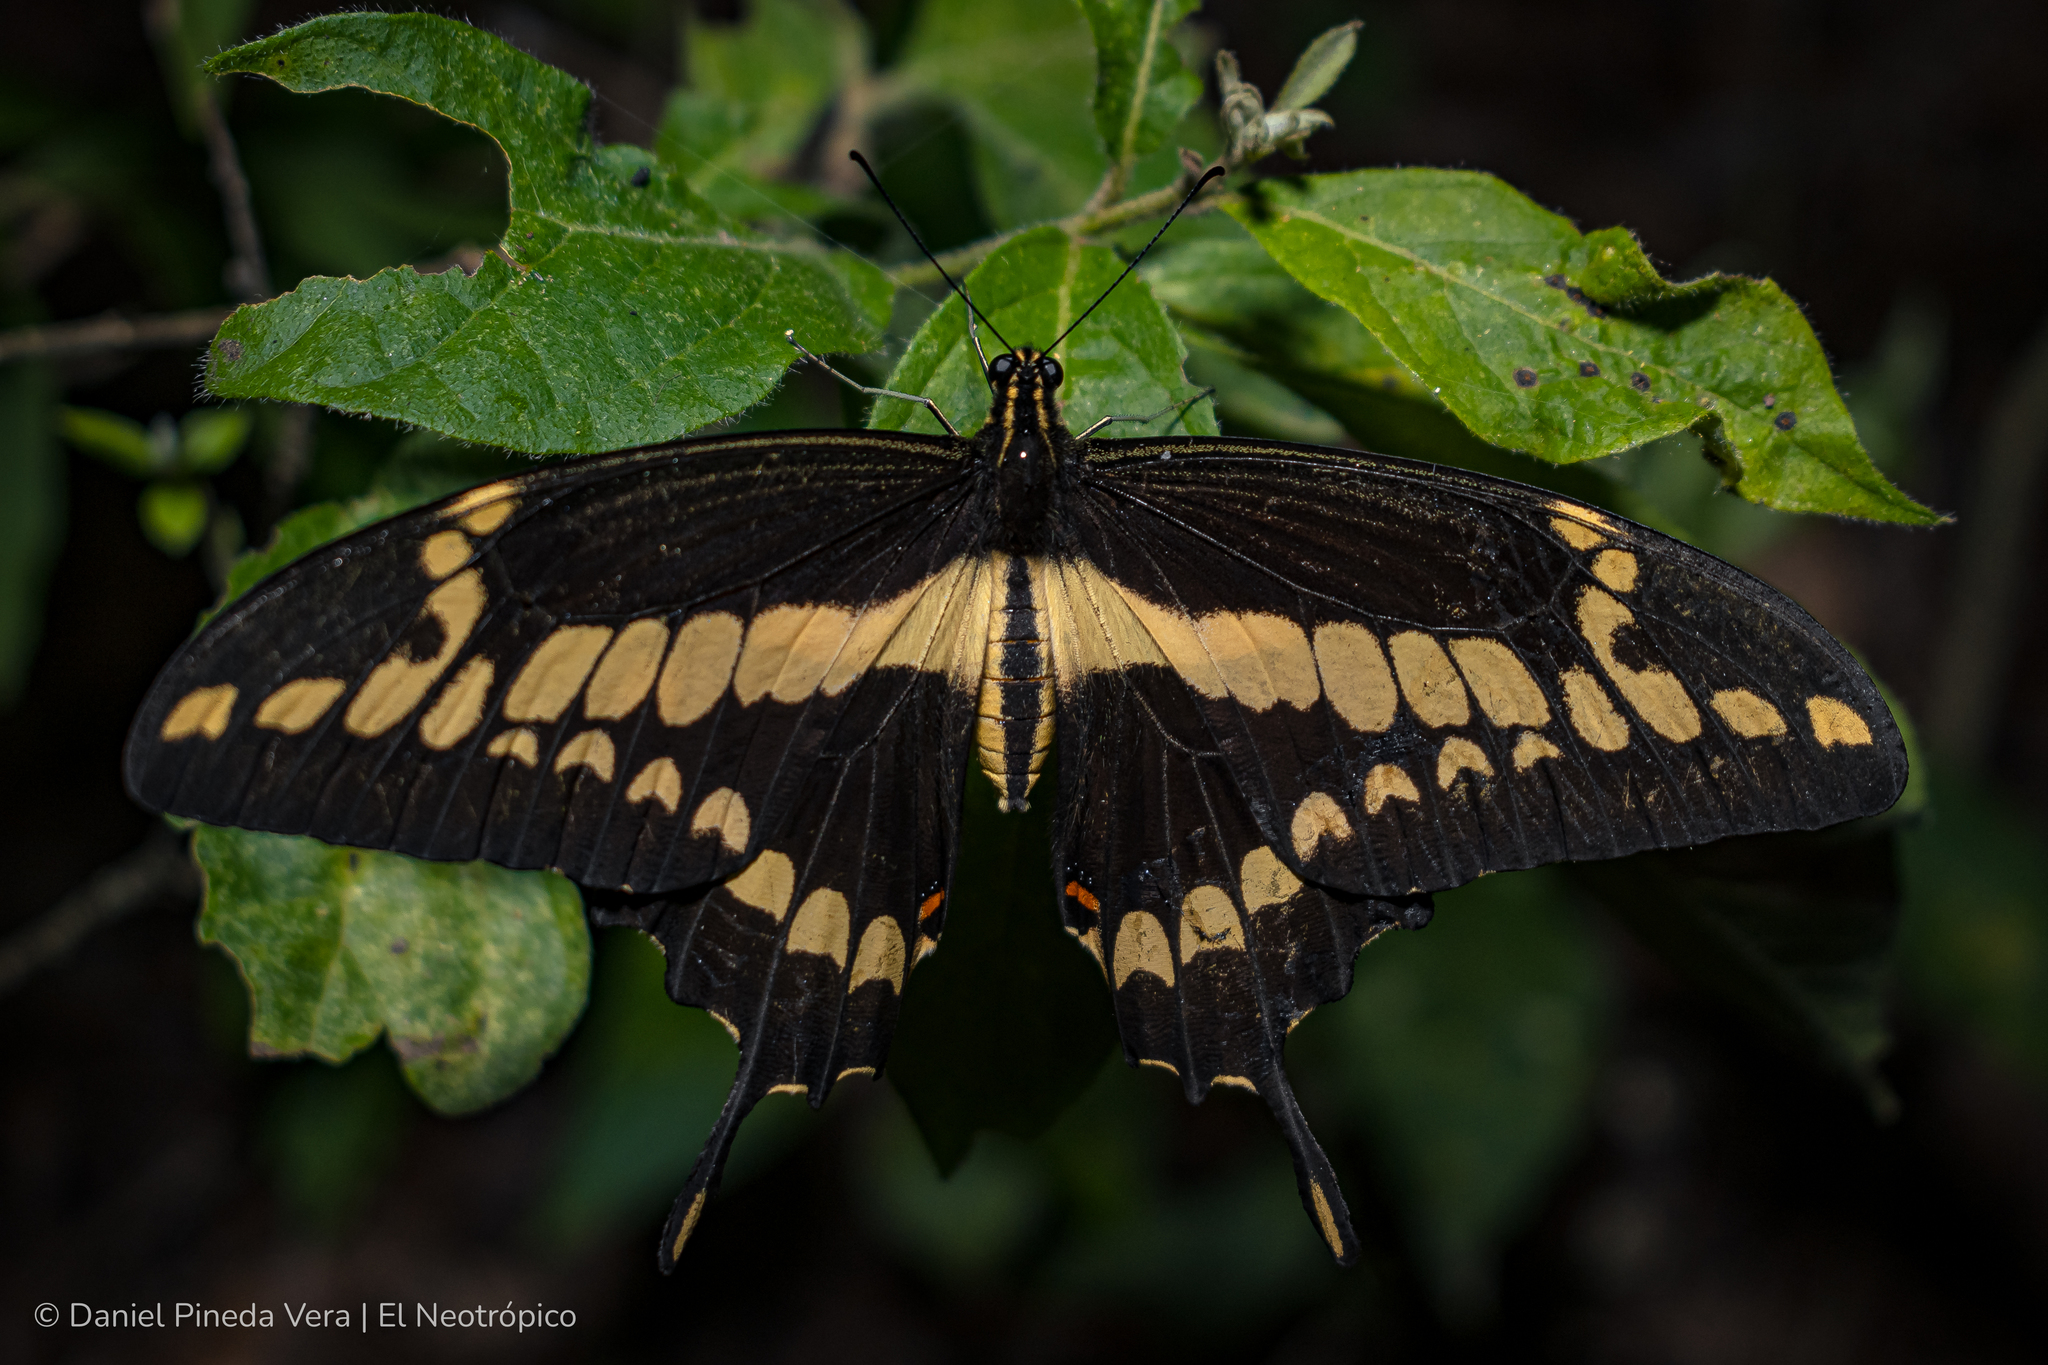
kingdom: Animalia
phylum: Arthropoda
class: Insecta
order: Lepidoptera
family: Papilionidae
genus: Papilio
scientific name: Papilio thoas
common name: King swallowtail
